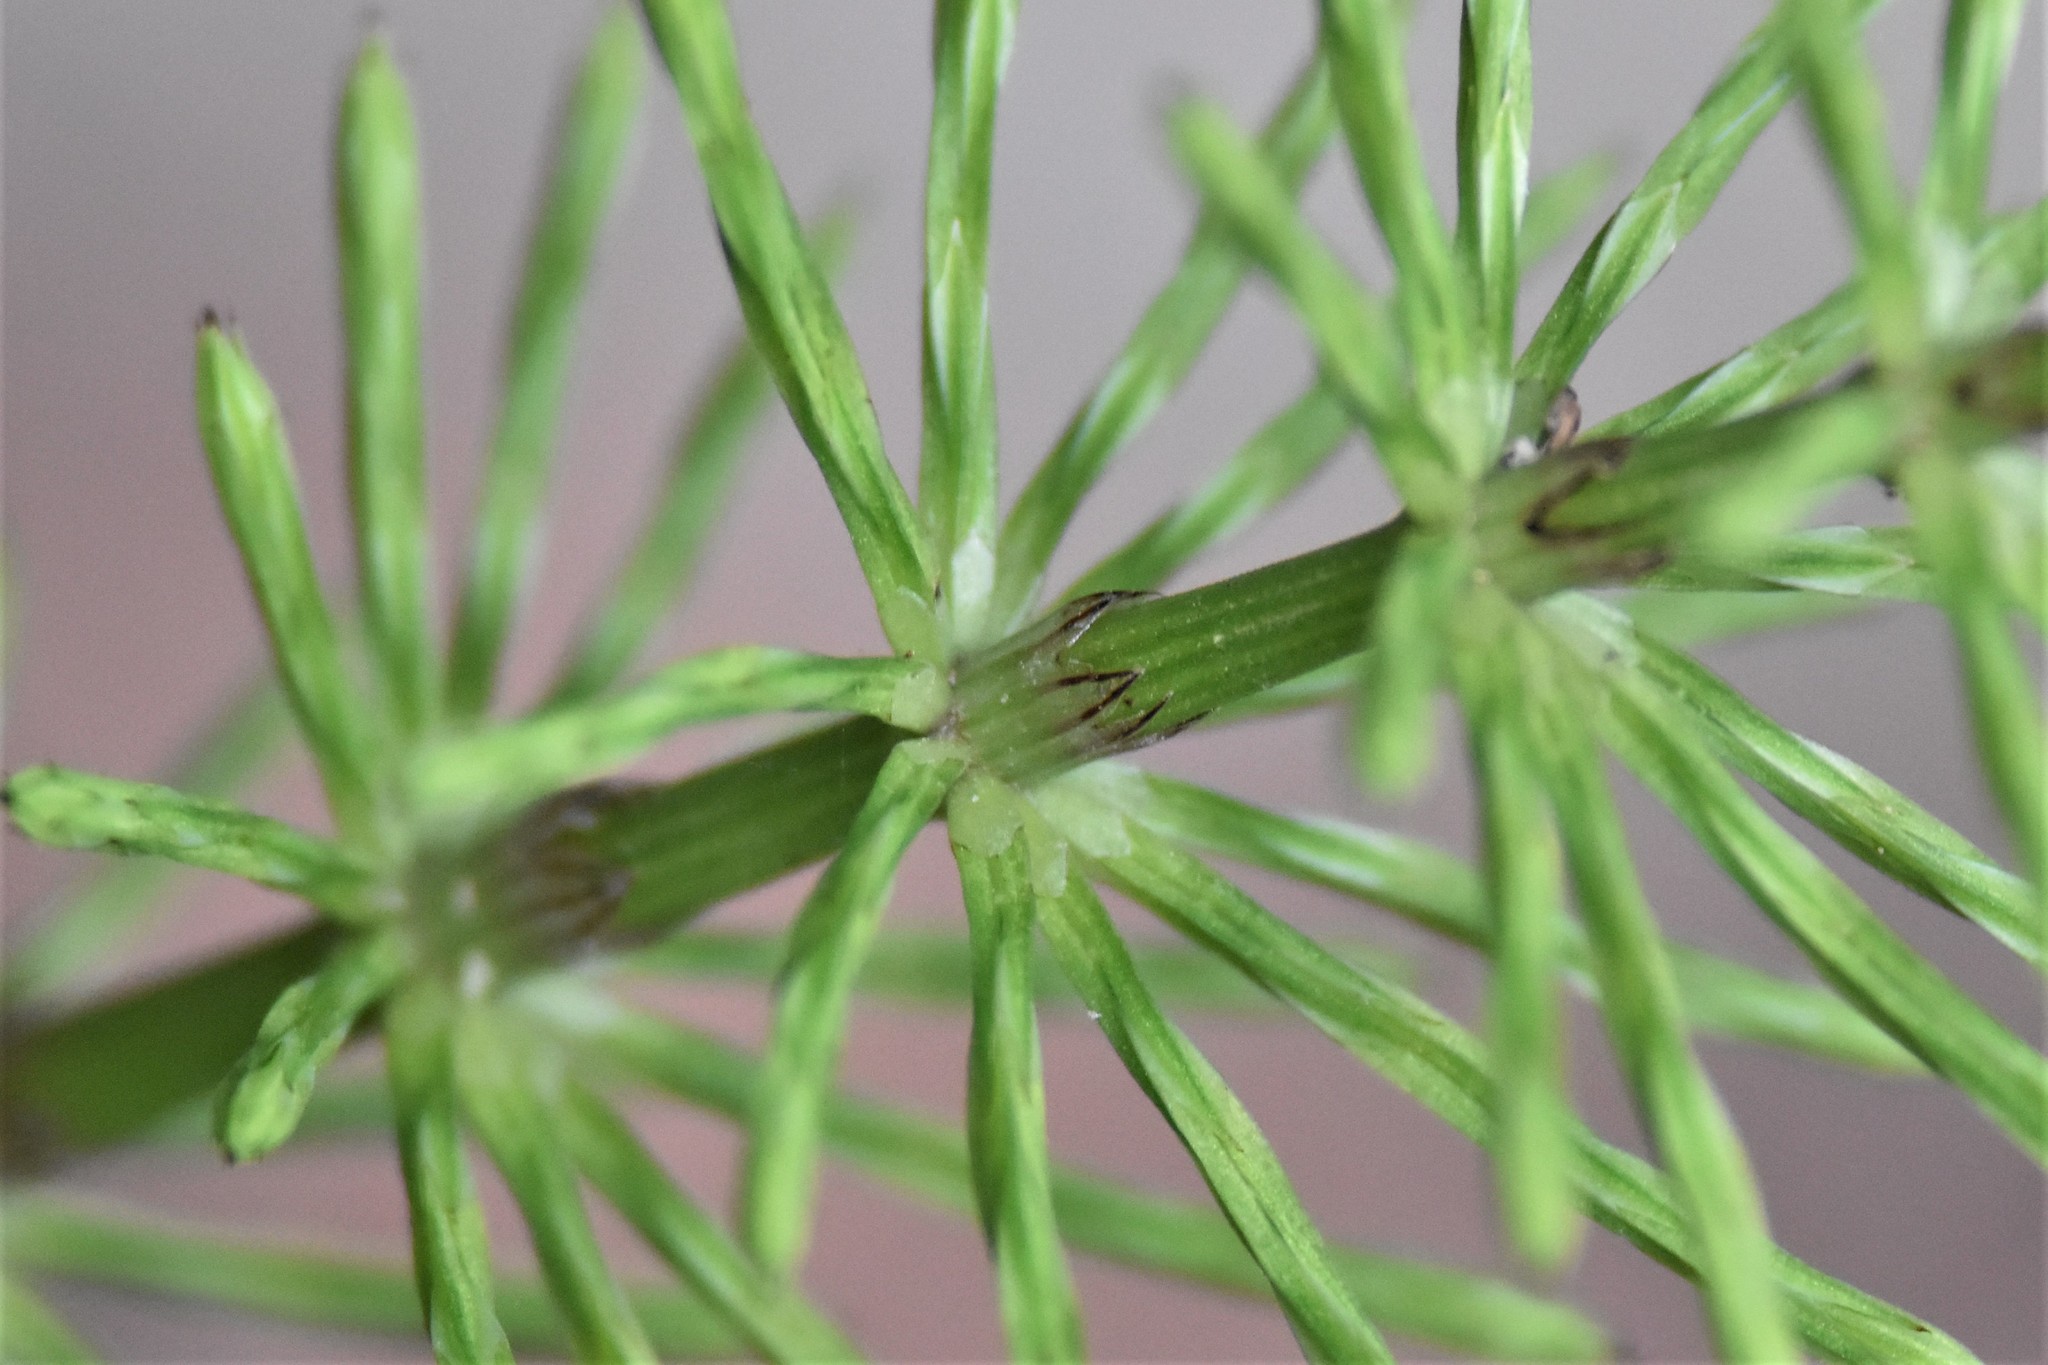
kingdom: Plantae
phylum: Tracheophyta
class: Polypodiopsida
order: Equisetales
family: Equisetaceae
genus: Equisetum
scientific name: Equisetum arvense
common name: Field horsetail
